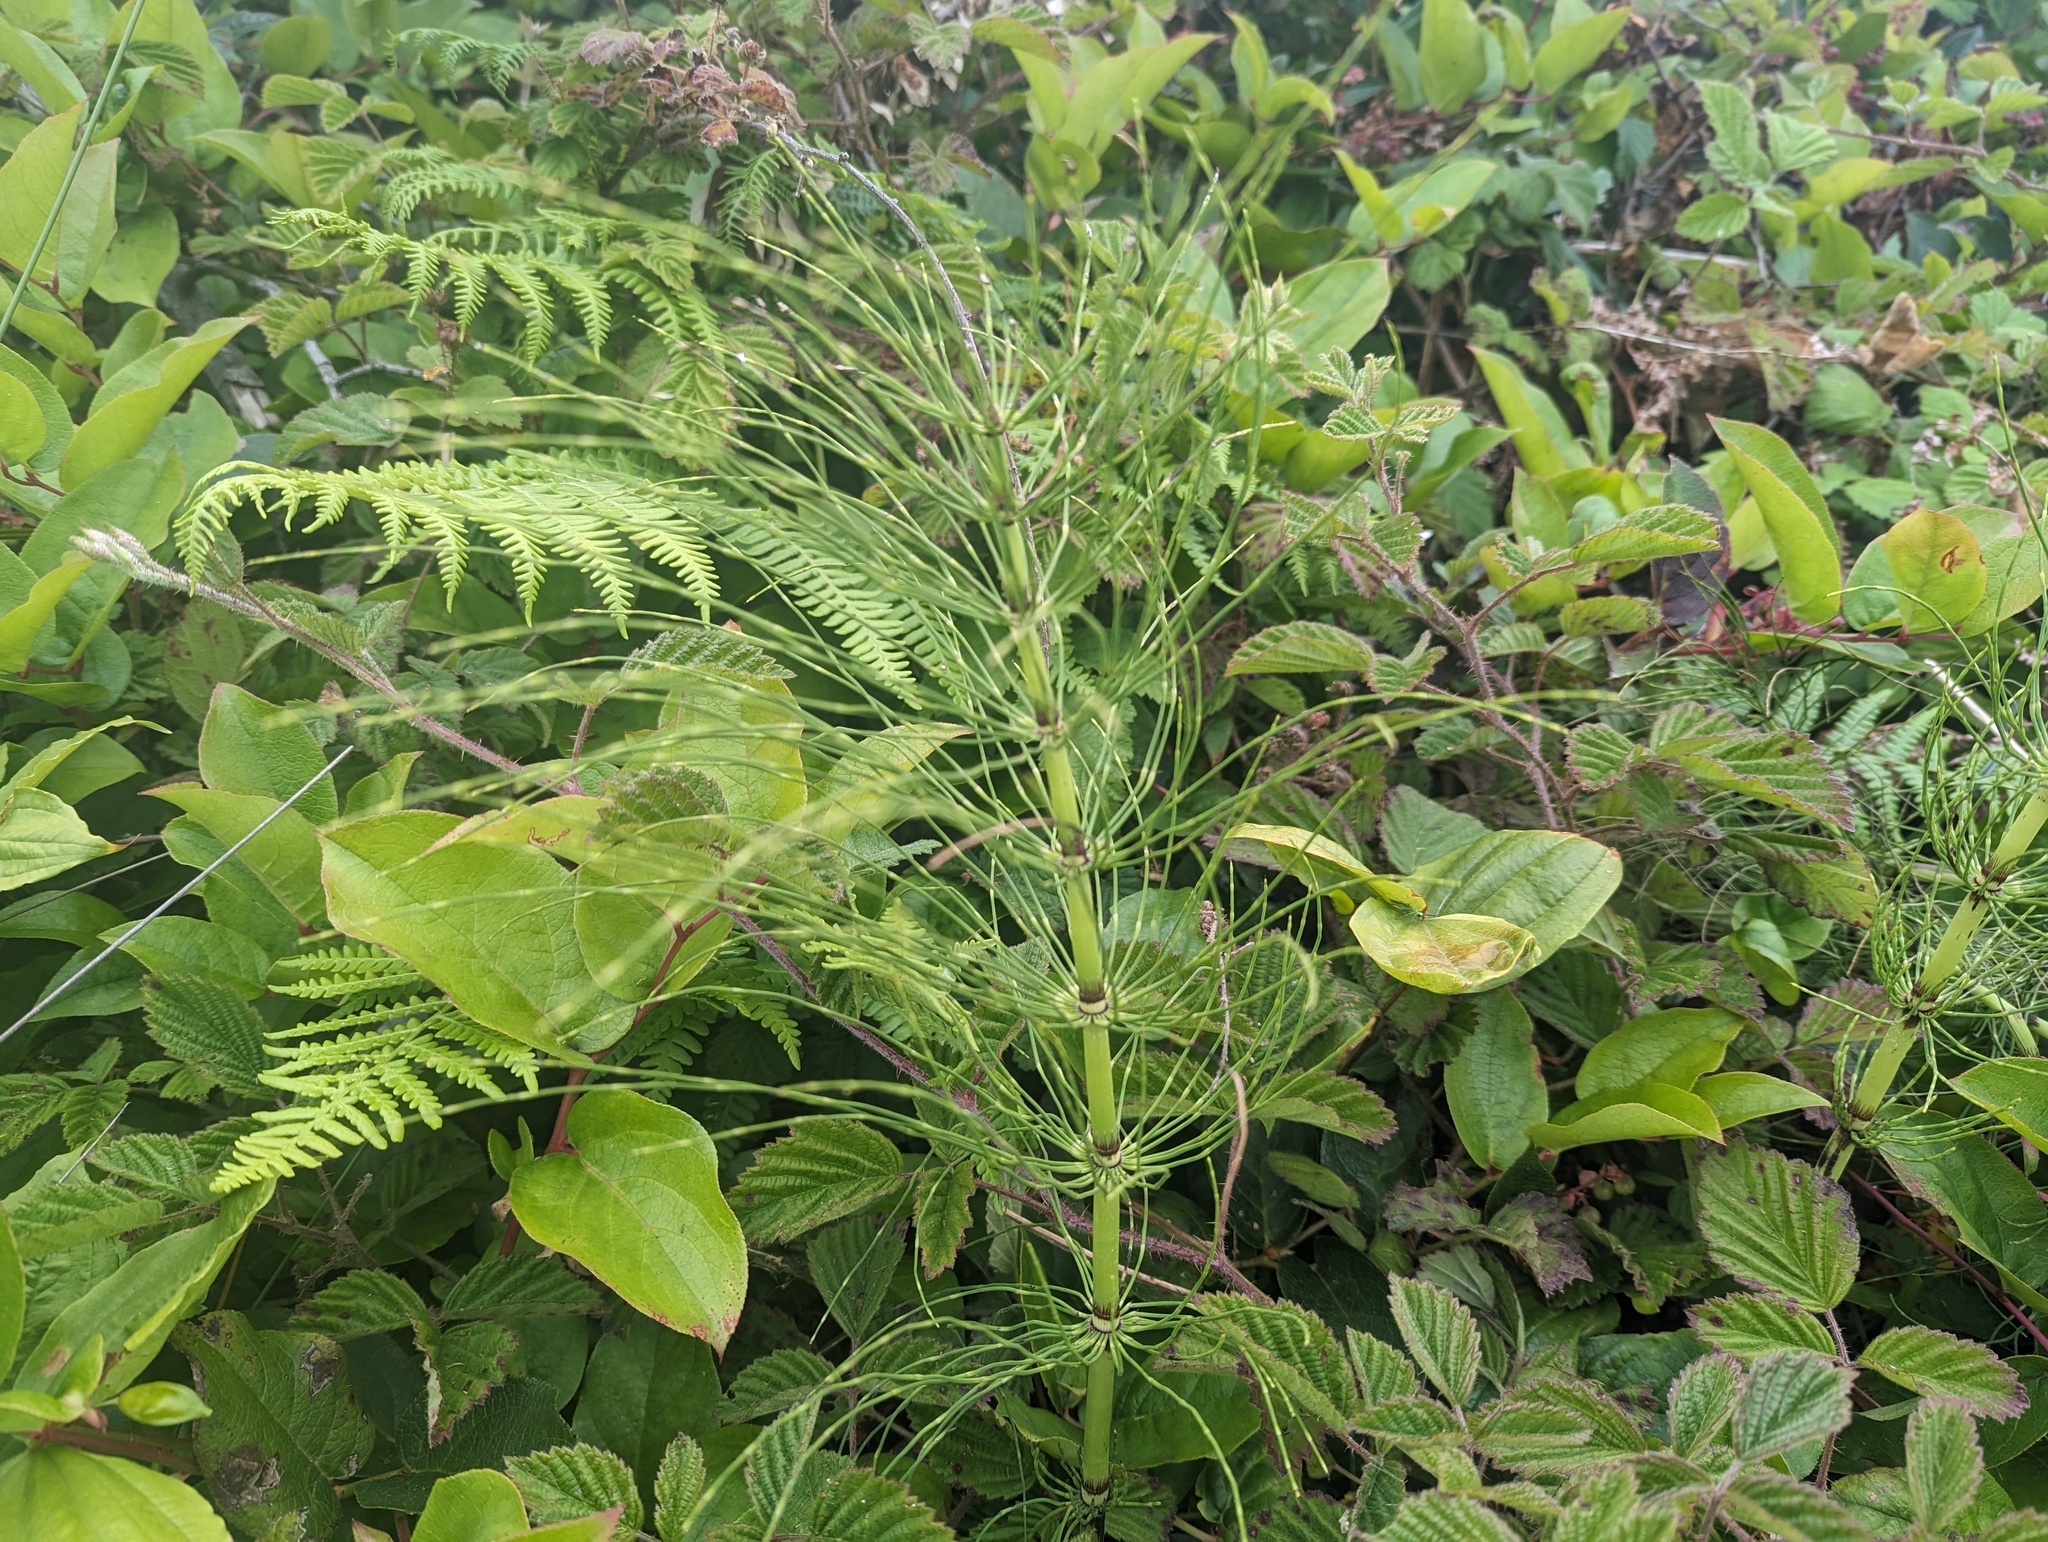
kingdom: Plantae
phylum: Tracheophyta
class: Polypodiopsida
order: Equisetales
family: Equisetaceae
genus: Equisetum
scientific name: Equisetum telmateia
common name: Great horsetail
